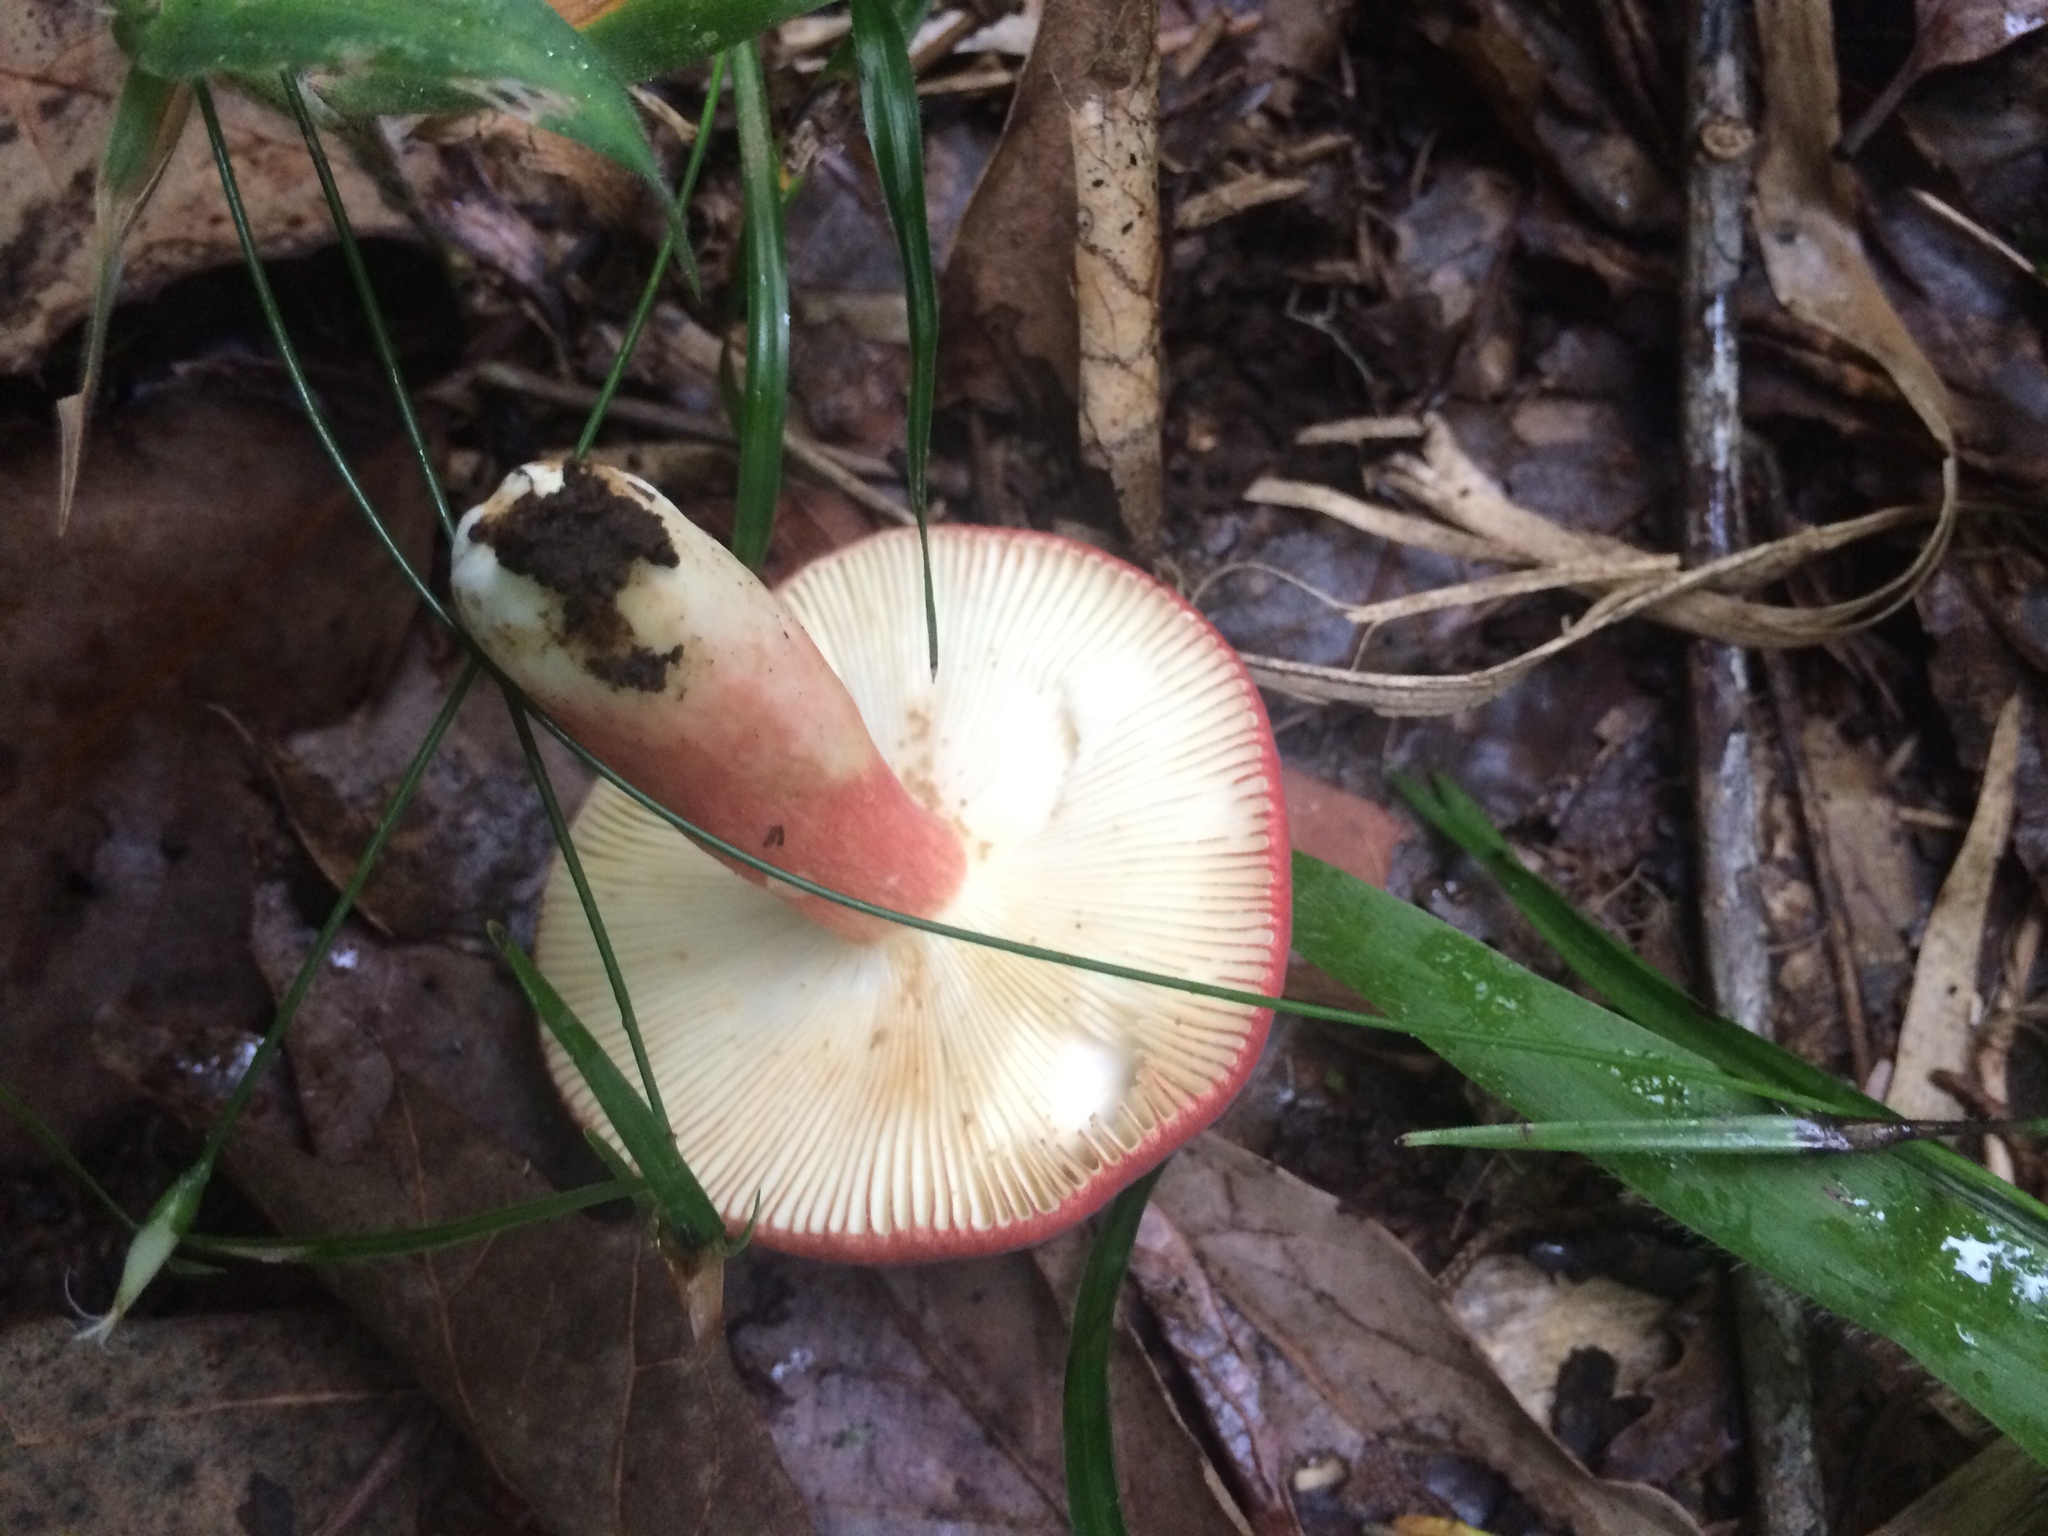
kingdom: Fungi
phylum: Basidiomycota
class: Agaricomycetes
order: Russulales
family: Russulaceae
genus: Russula
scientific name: Russula sanguinea
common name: Bloody brittlegill
